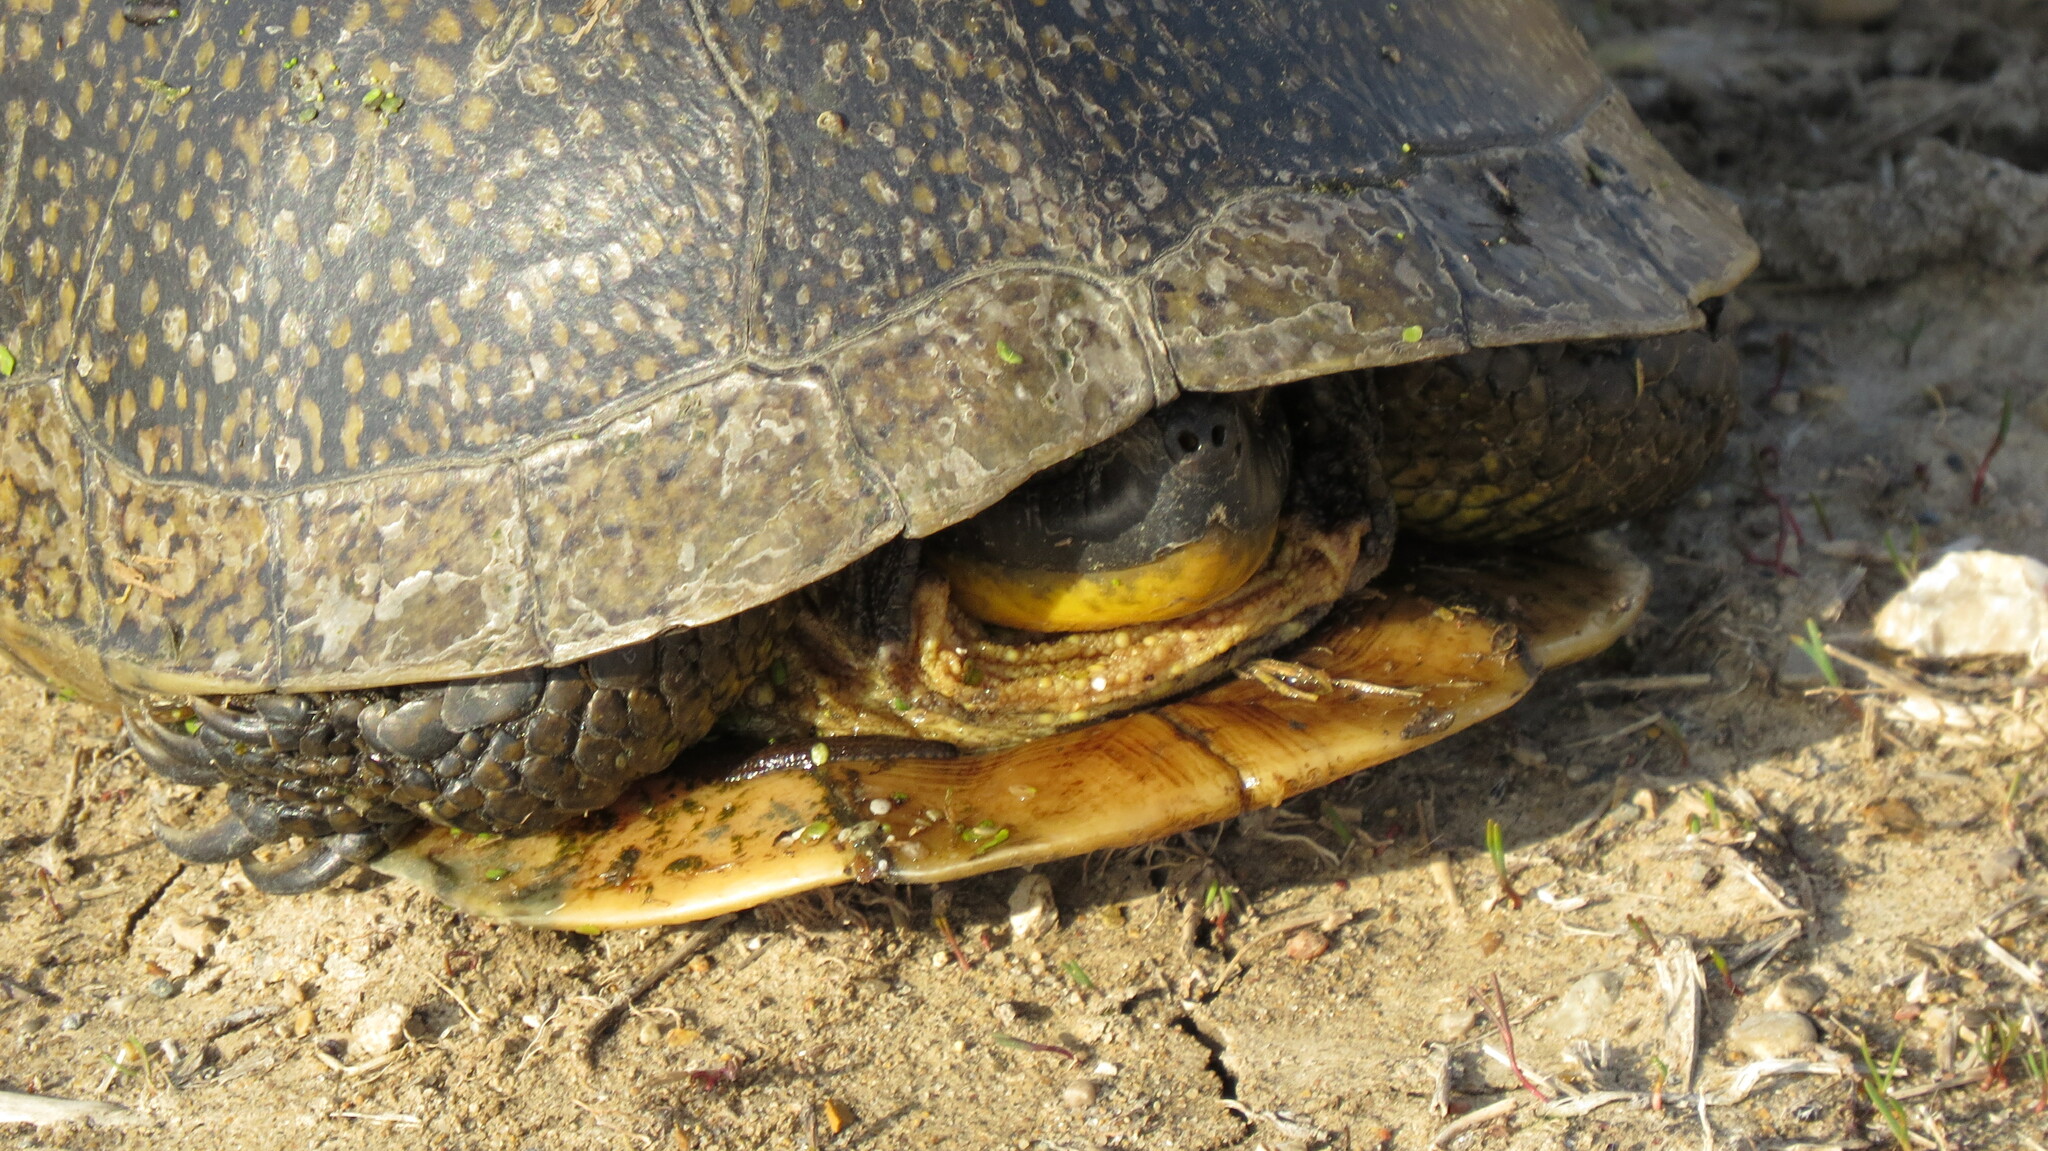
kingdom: Animalia
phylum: Chordata
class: Testudines
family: Emydidae
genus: Emys
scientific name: Emys blandingii
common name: Blanding's turtle
